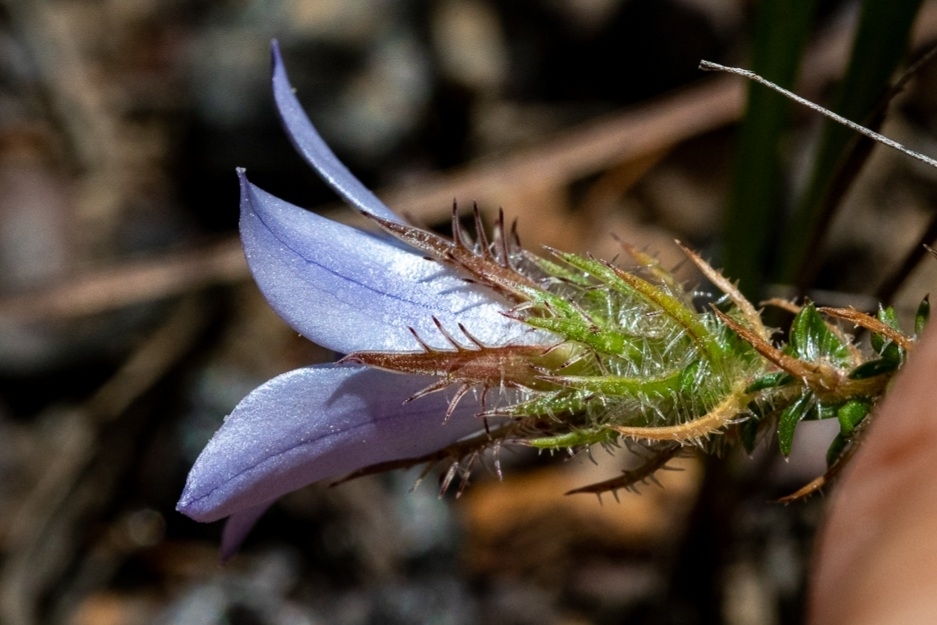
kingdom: Plantae
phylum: Tracheophyta
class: Magnoliopsida
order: Asterales
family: Campanulaceae
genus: Roella
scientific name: Roella prostrata
